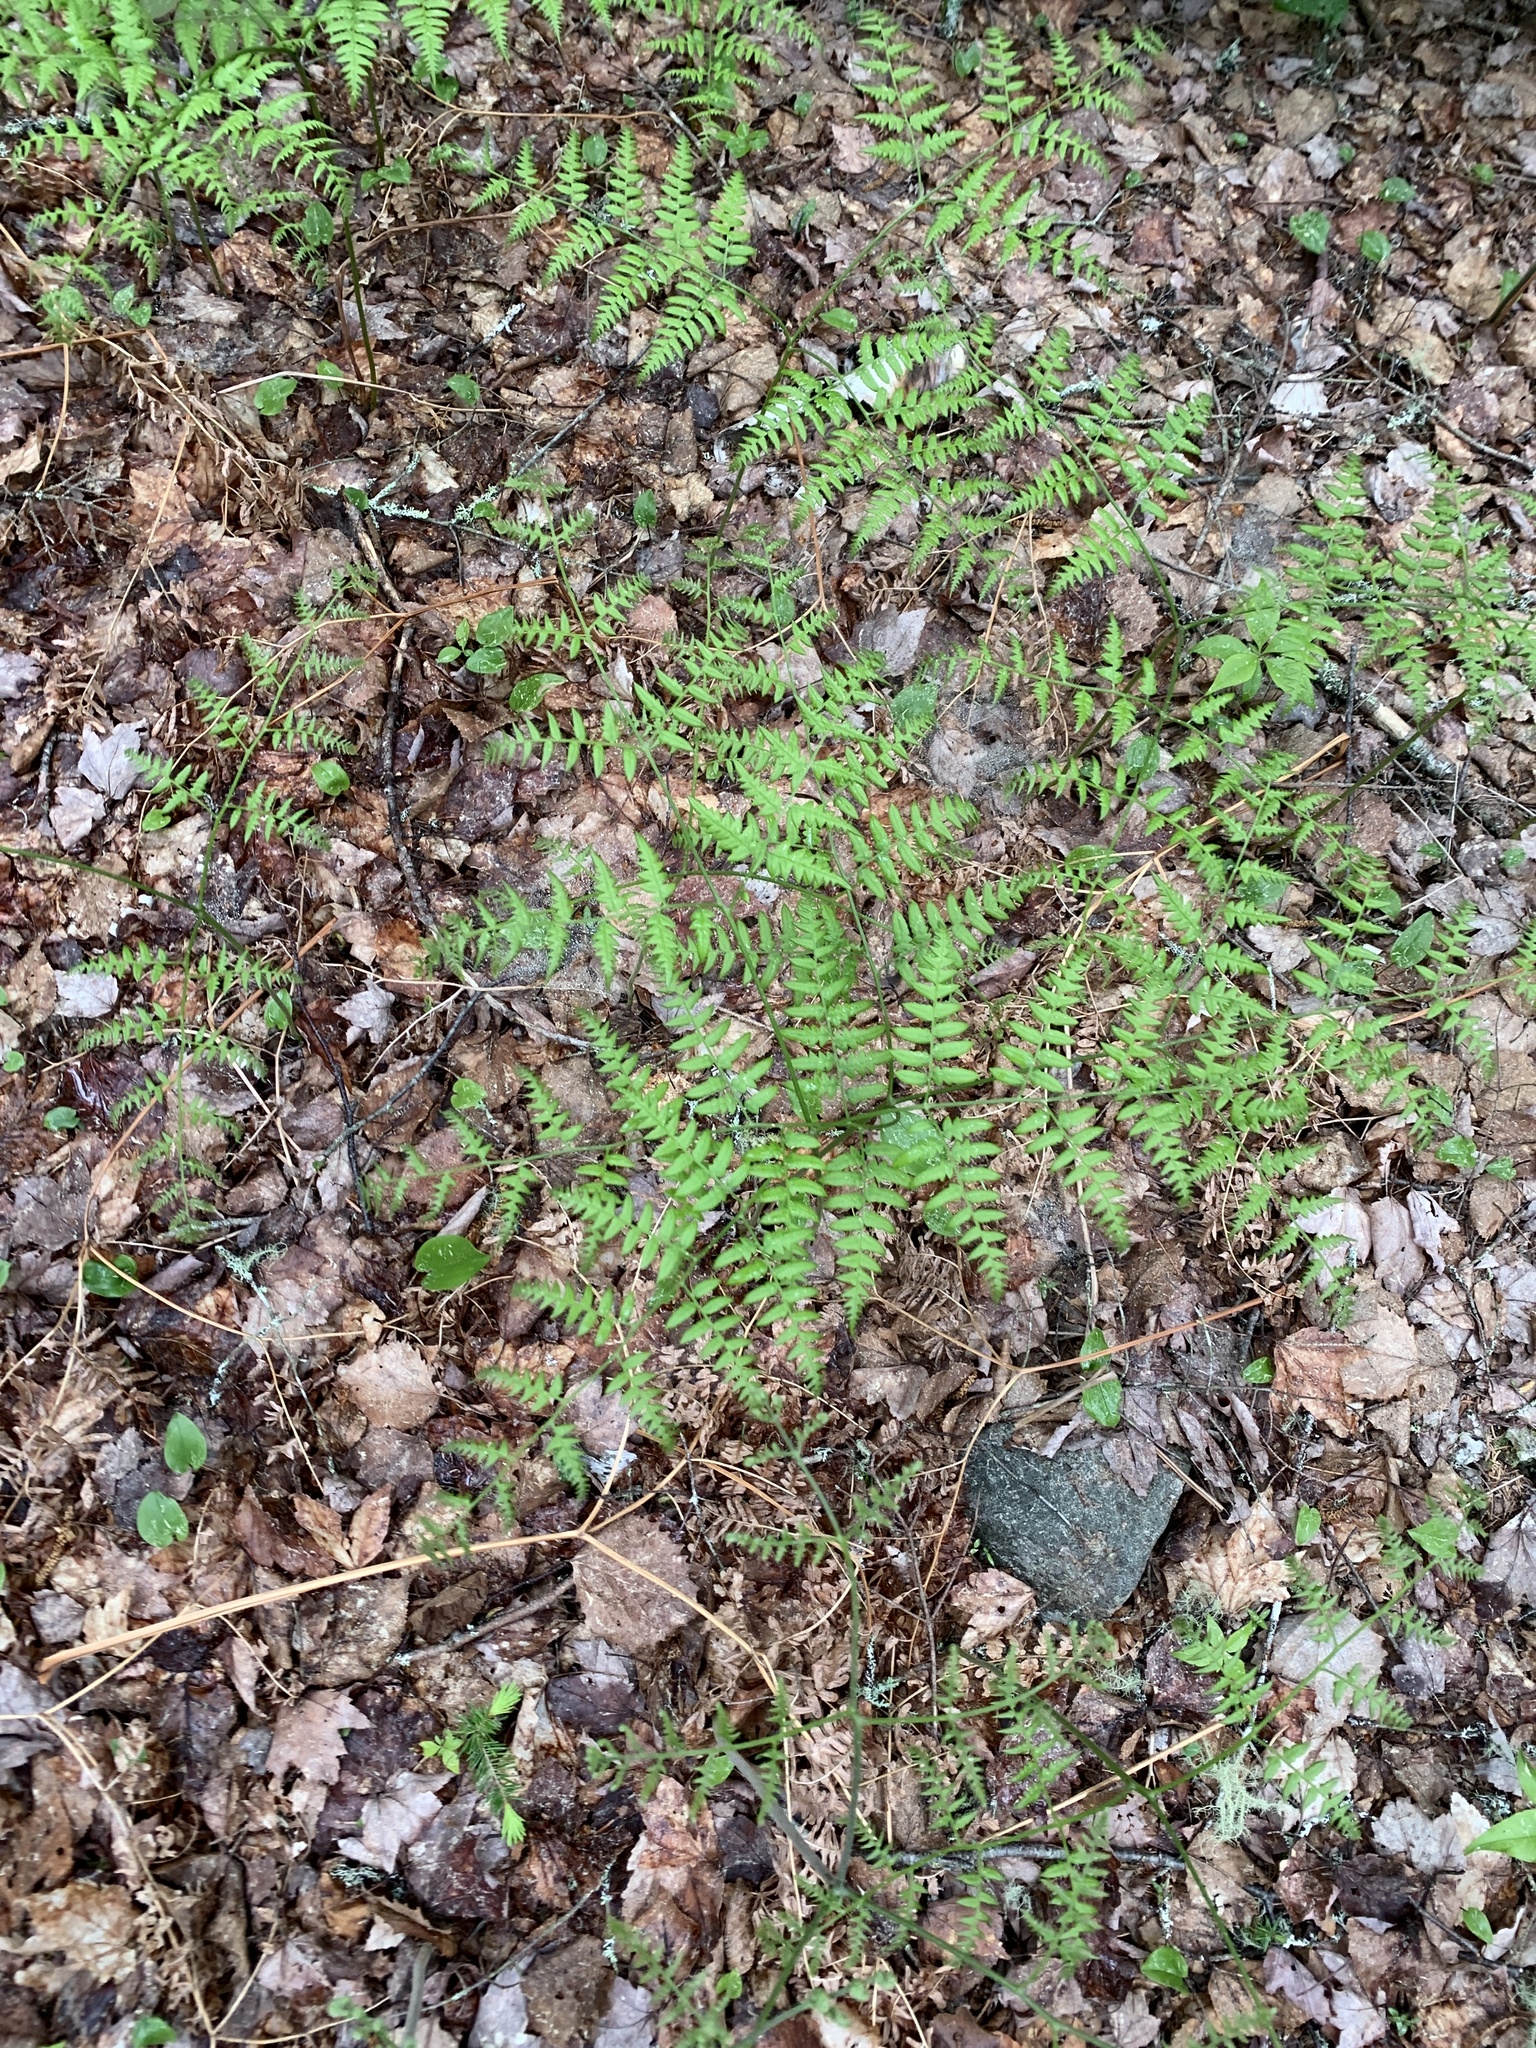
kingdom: Plantae
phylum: Tracheophyta
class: Polypodiopsida
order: Polypodiales
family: Dennstaedtiaceae
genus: Pteridium
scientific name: Pteridium aquilinum
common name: Bracken
